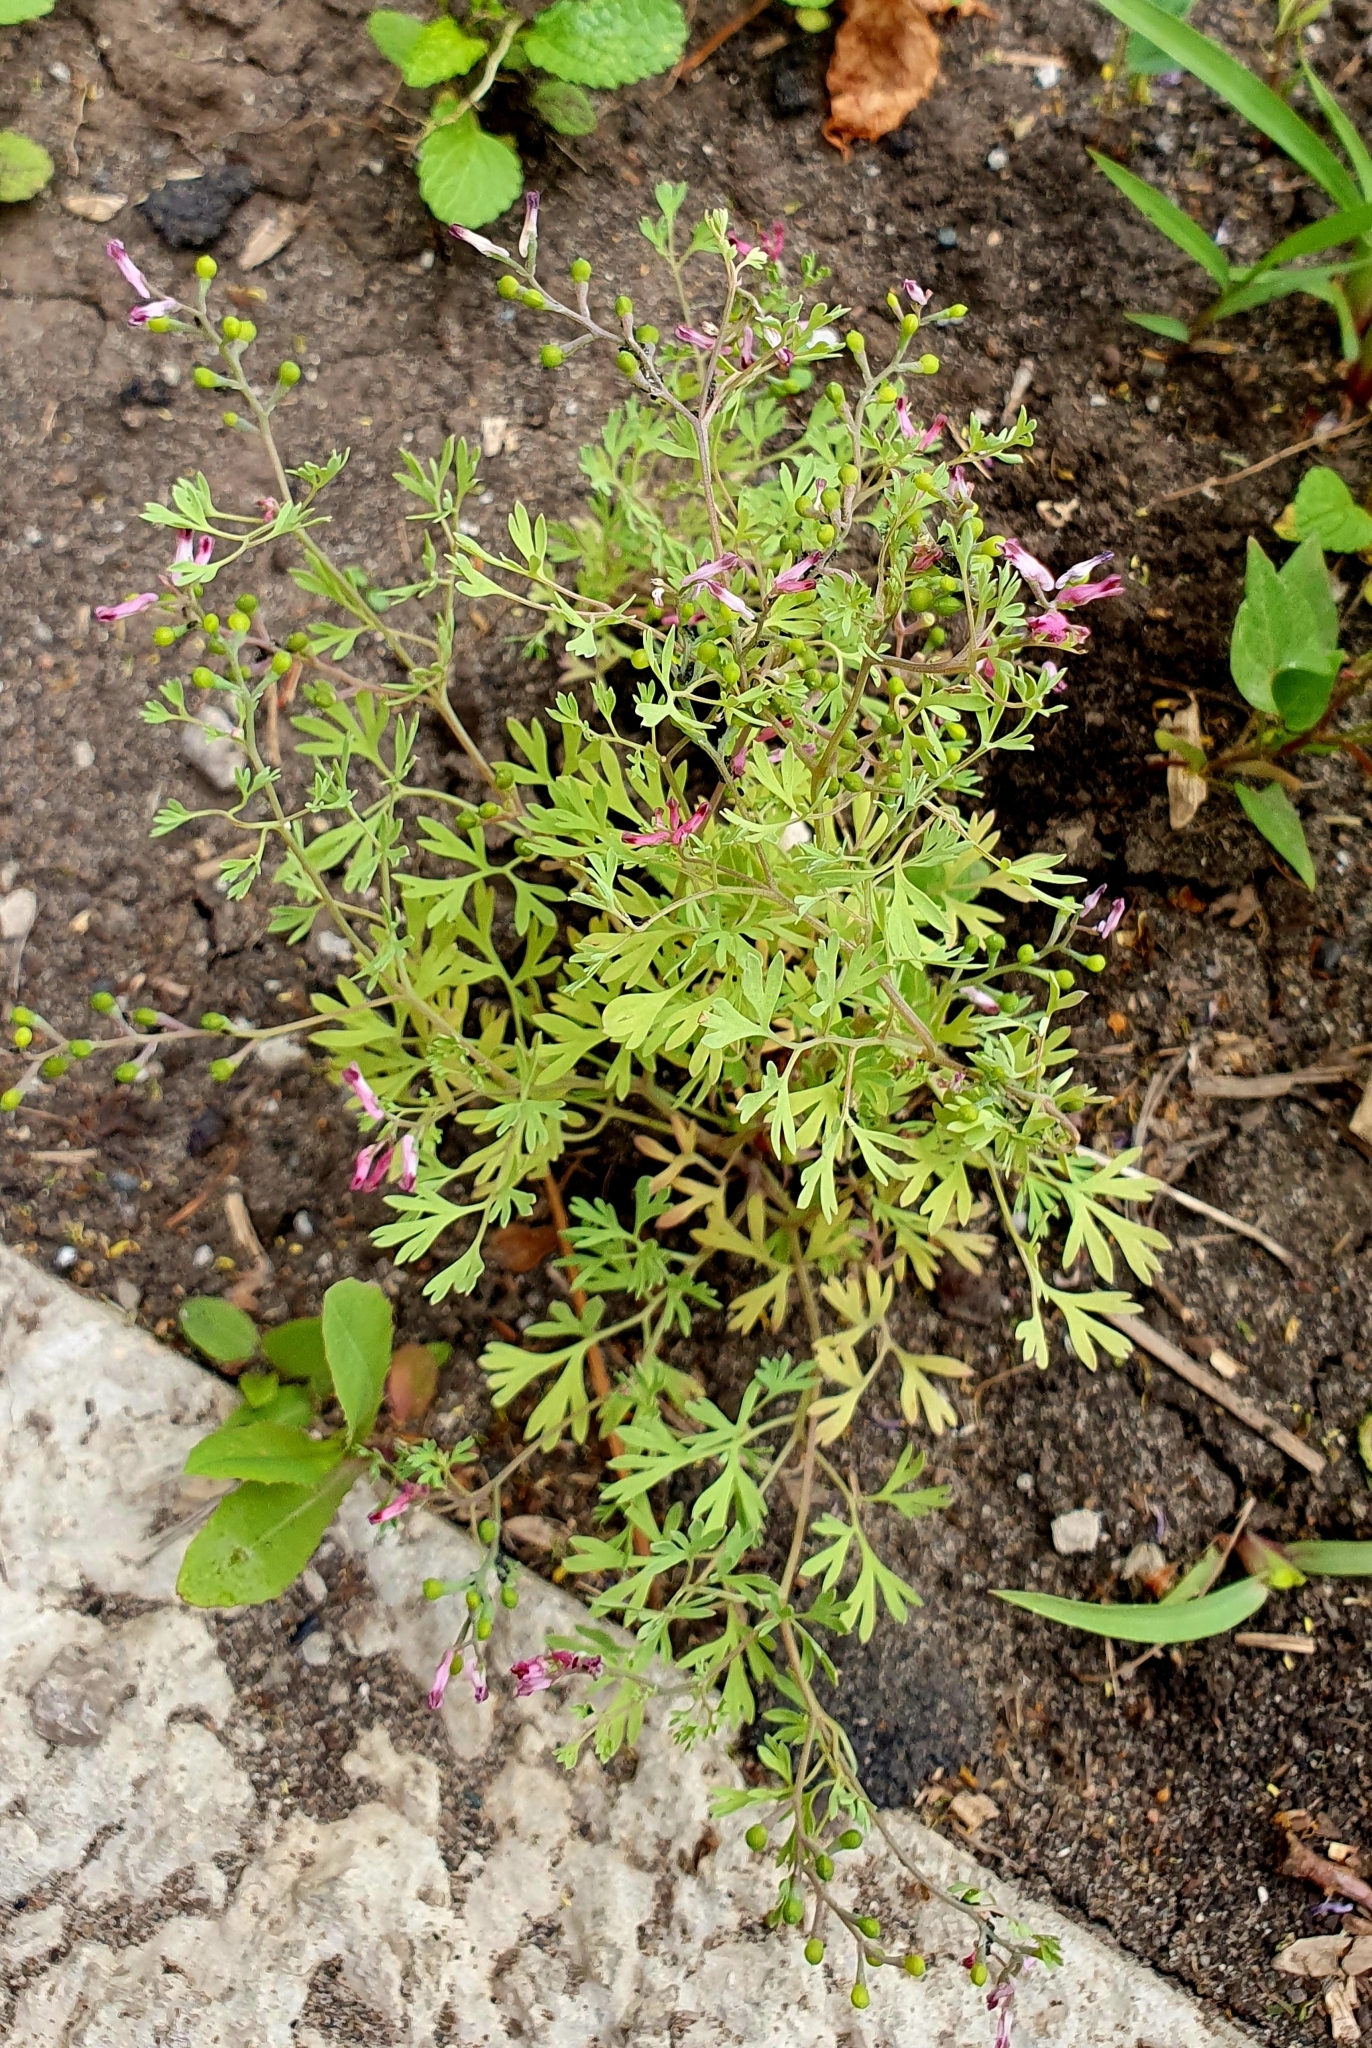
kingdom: Plantae
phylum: Tracheophyta
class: Magnoliopsida
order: Ranunculales
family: Papaveraceae
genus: Fumaria
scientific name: Fumaria schleicheri
